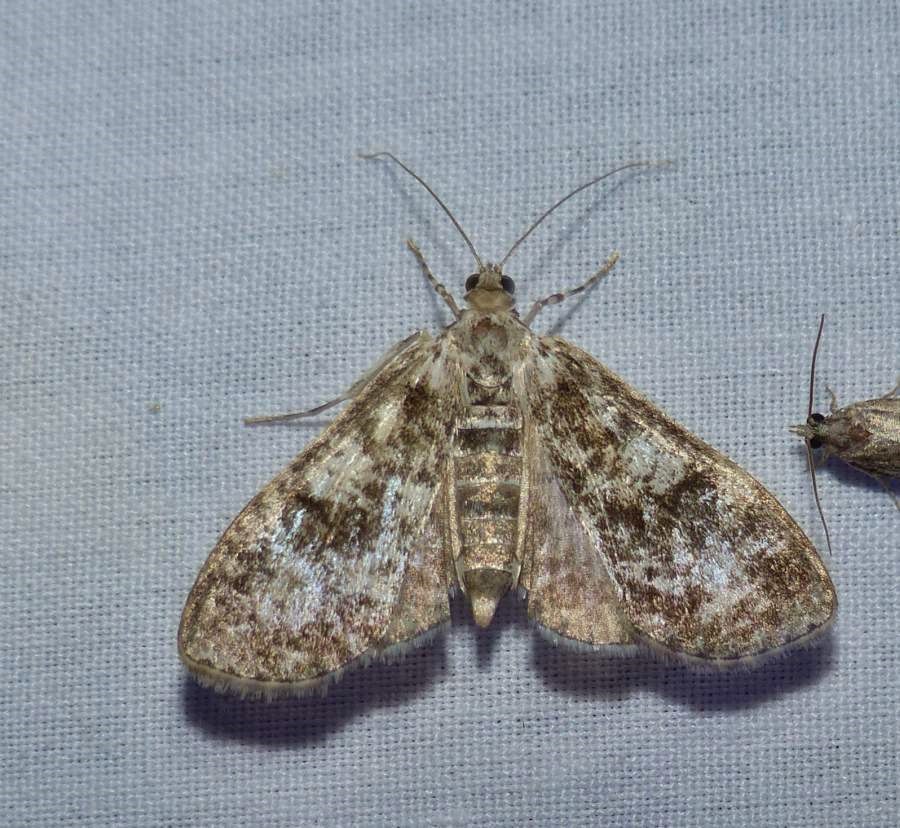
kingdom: Animalia
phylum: Arthropoda
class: Insecta
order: Lepidoptera
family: Crambidae
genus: Palpita
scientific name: Palpita magniferalis
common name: Splendid palpita moth
